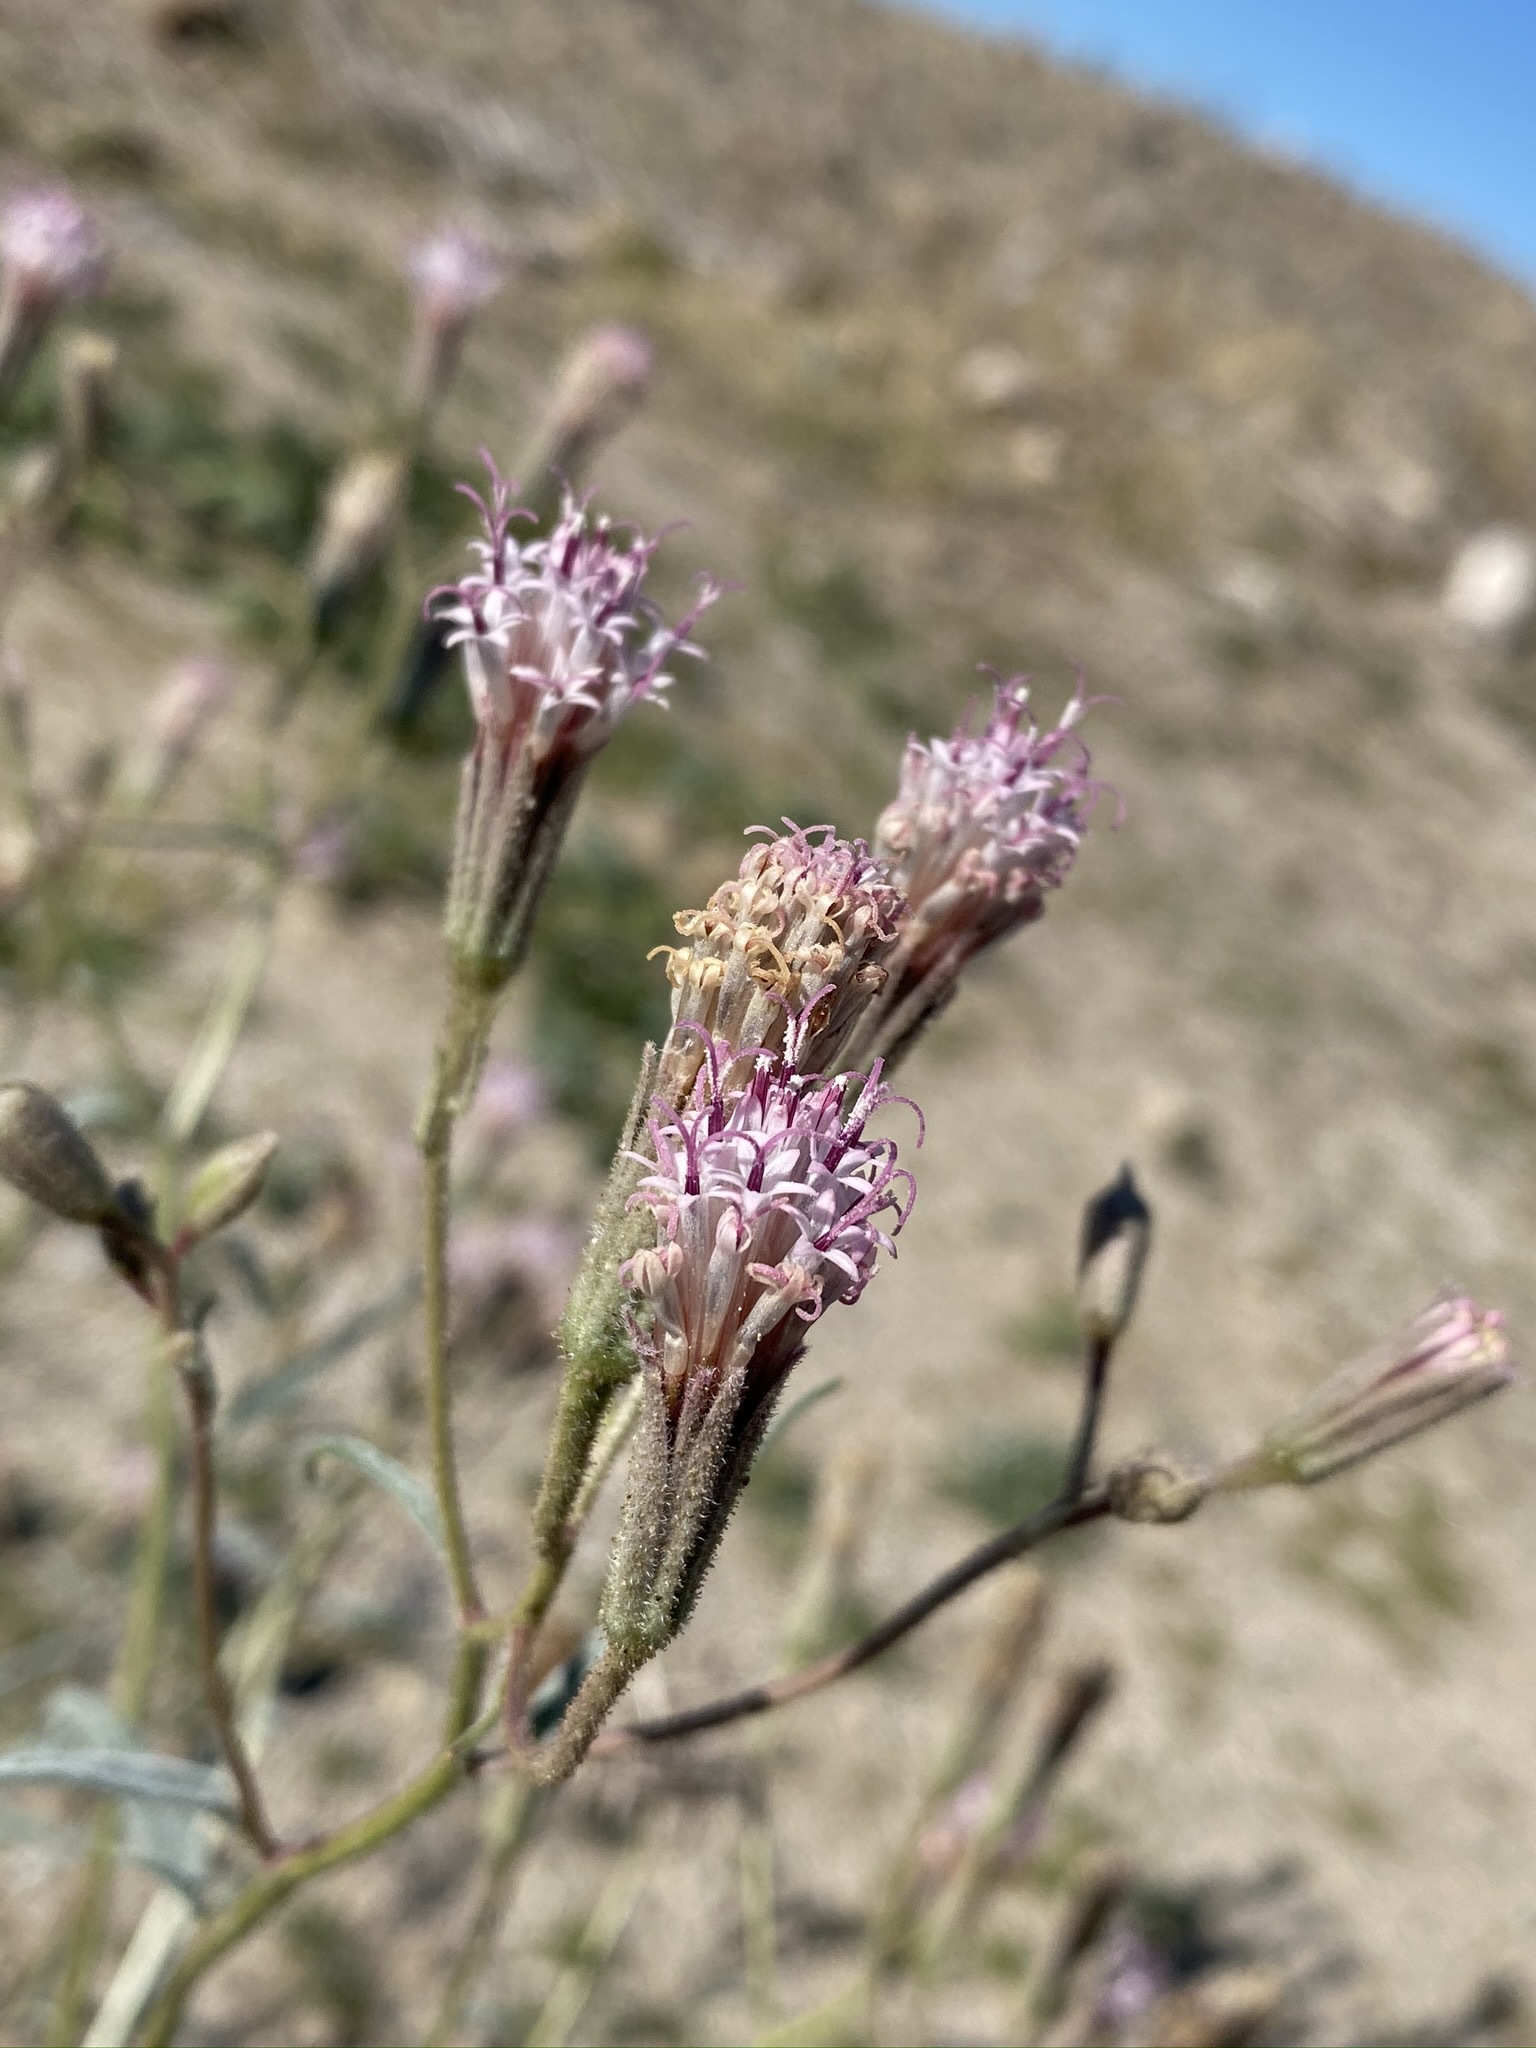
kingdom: Plantae
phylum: Tracheophyta
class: Magnoliopsida
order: Asterales
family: Asteraceae
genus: Palafoxia
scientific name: Palafoxia arida
